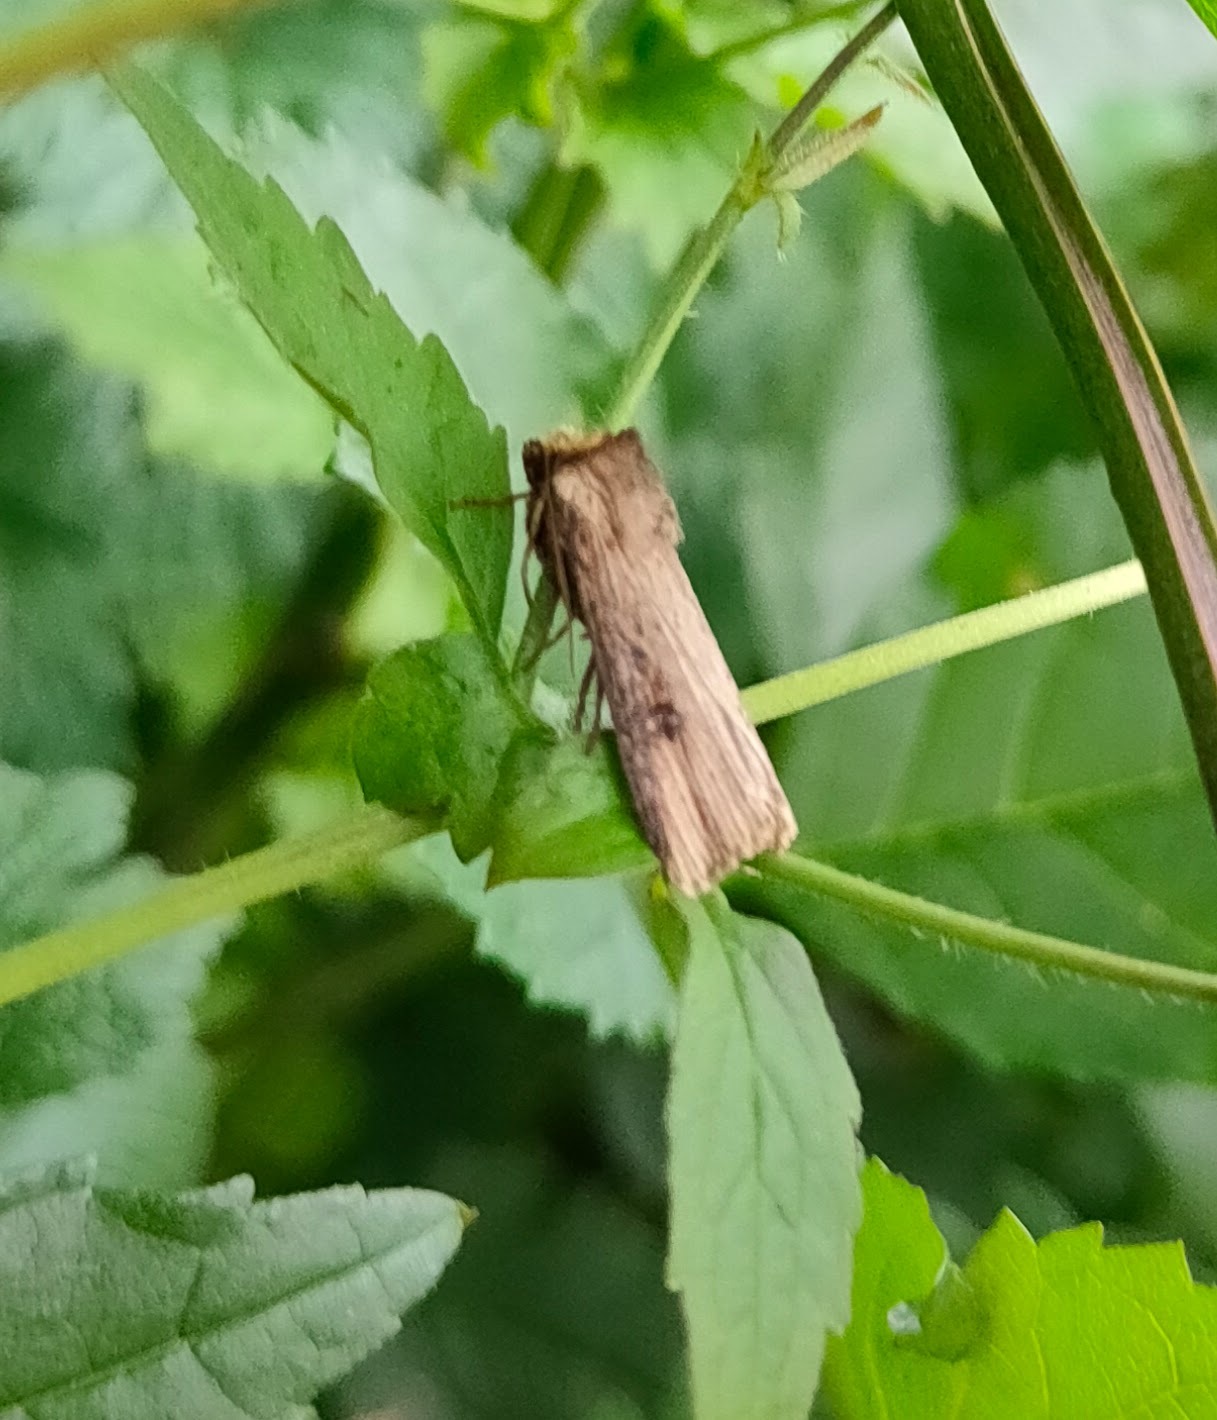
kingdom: Animalia
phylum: Arthropoda
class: Insecta
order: Lepidoptera
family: Noctuidae
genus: Axylia
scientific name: Axylia putris
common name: Flame
